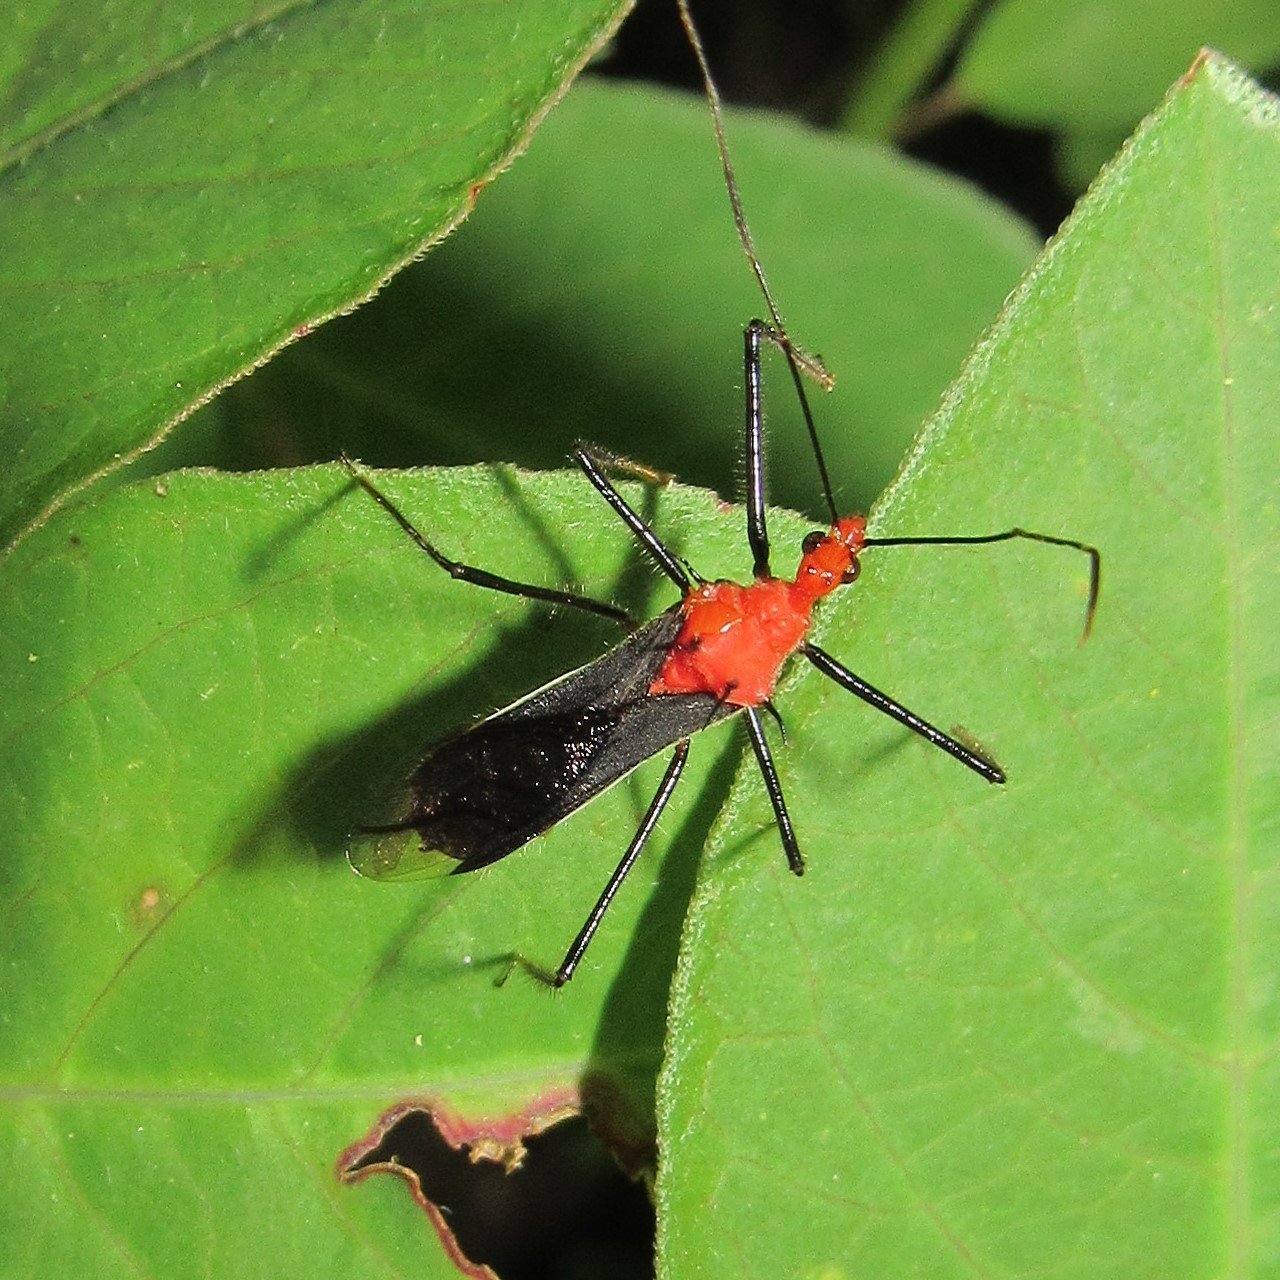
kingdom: Animalia
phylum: Arthropoda
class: Insecta
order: Hemiptera
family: Reduviidae
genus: Repipta
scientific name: Repipta fuscospinosa
